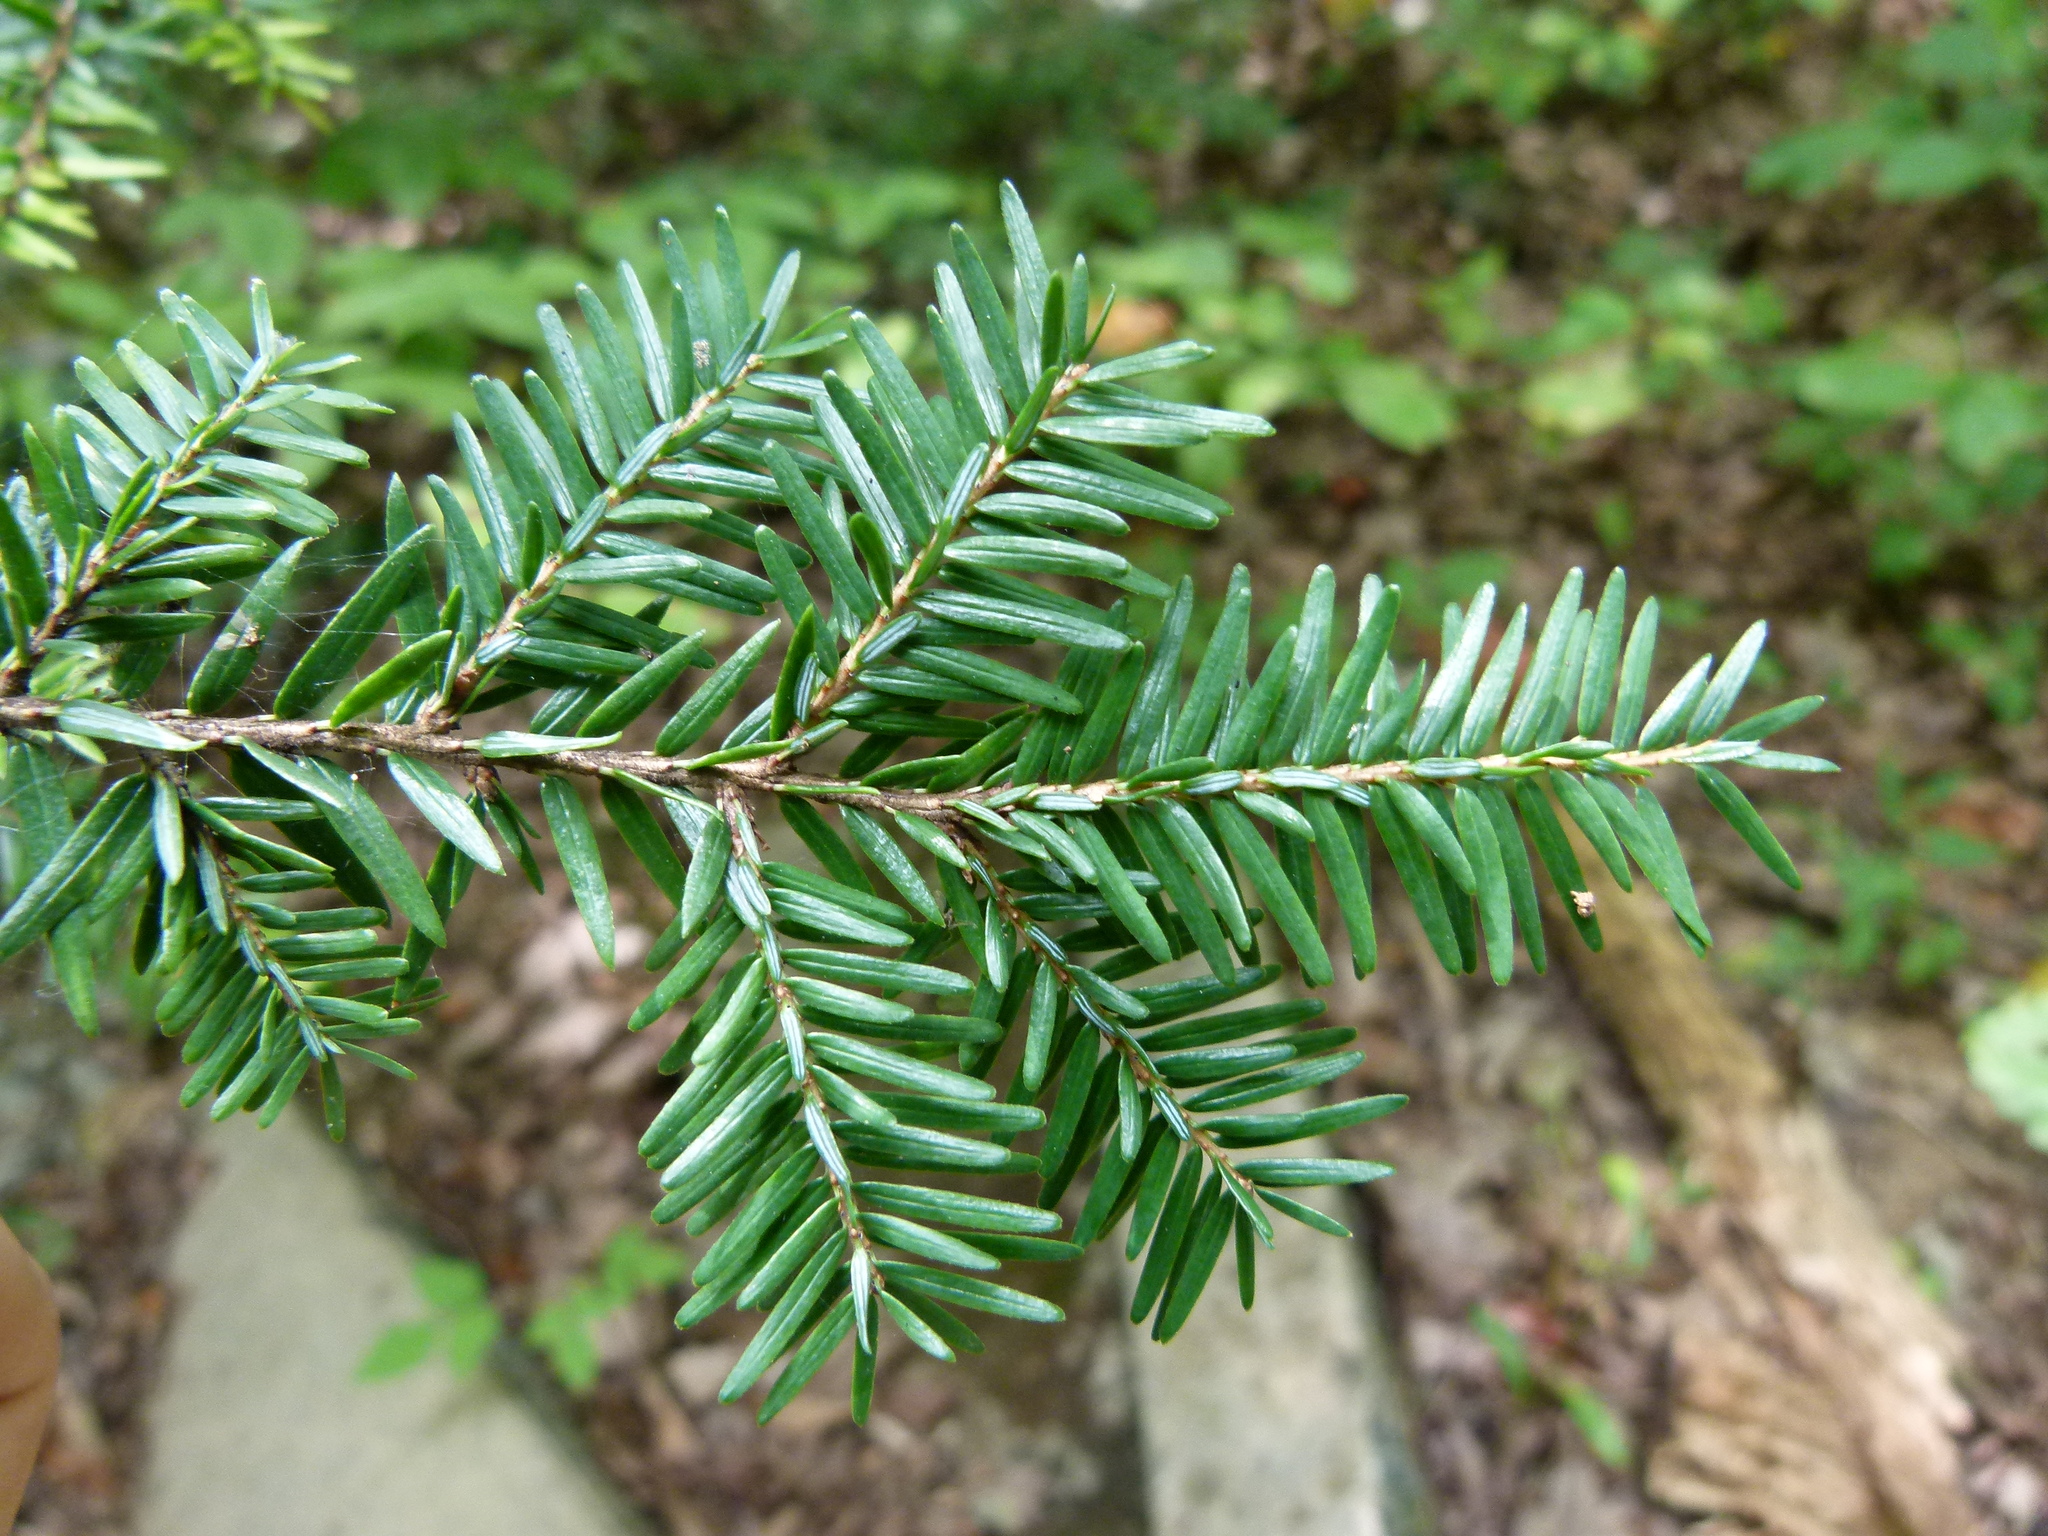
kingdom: Plantae
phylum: Tracheophyta
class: Pinopsida
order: Pinales
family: Pinaceae
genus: Tsuga
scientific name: Tsuga canadensis
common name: Eastern hemlock
